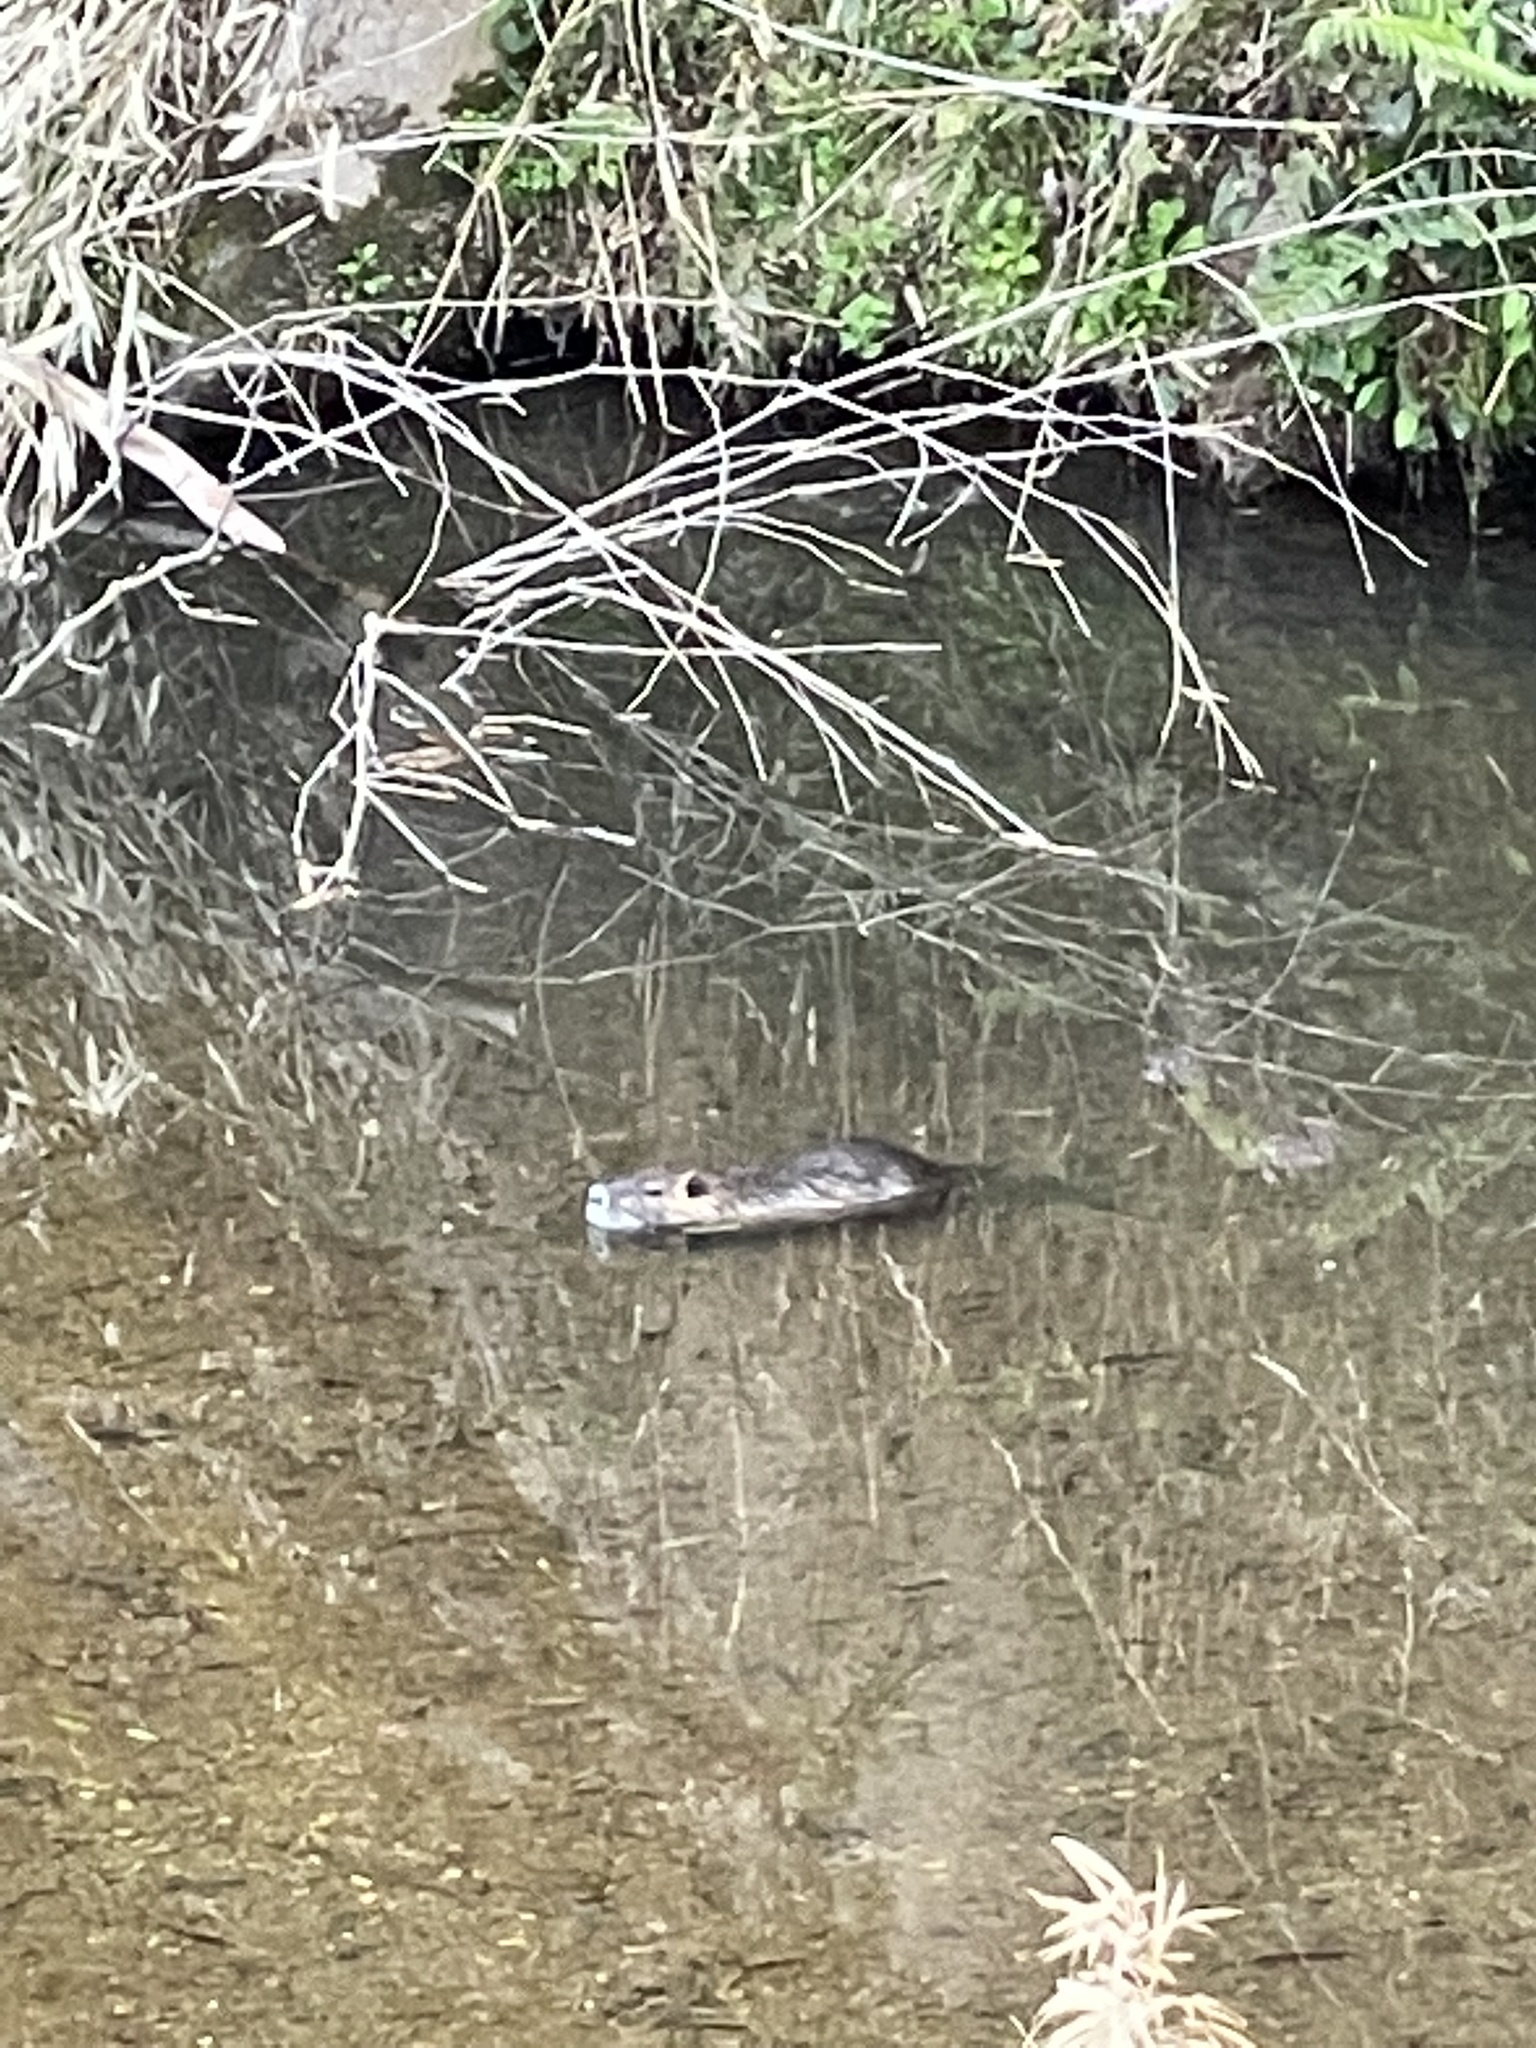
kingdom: Animalia
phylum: Chordata
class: Mammalia
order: Rodentia
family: Myocastoridae
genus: Myocastor
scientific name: Myocastor coypus
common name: Coypu
